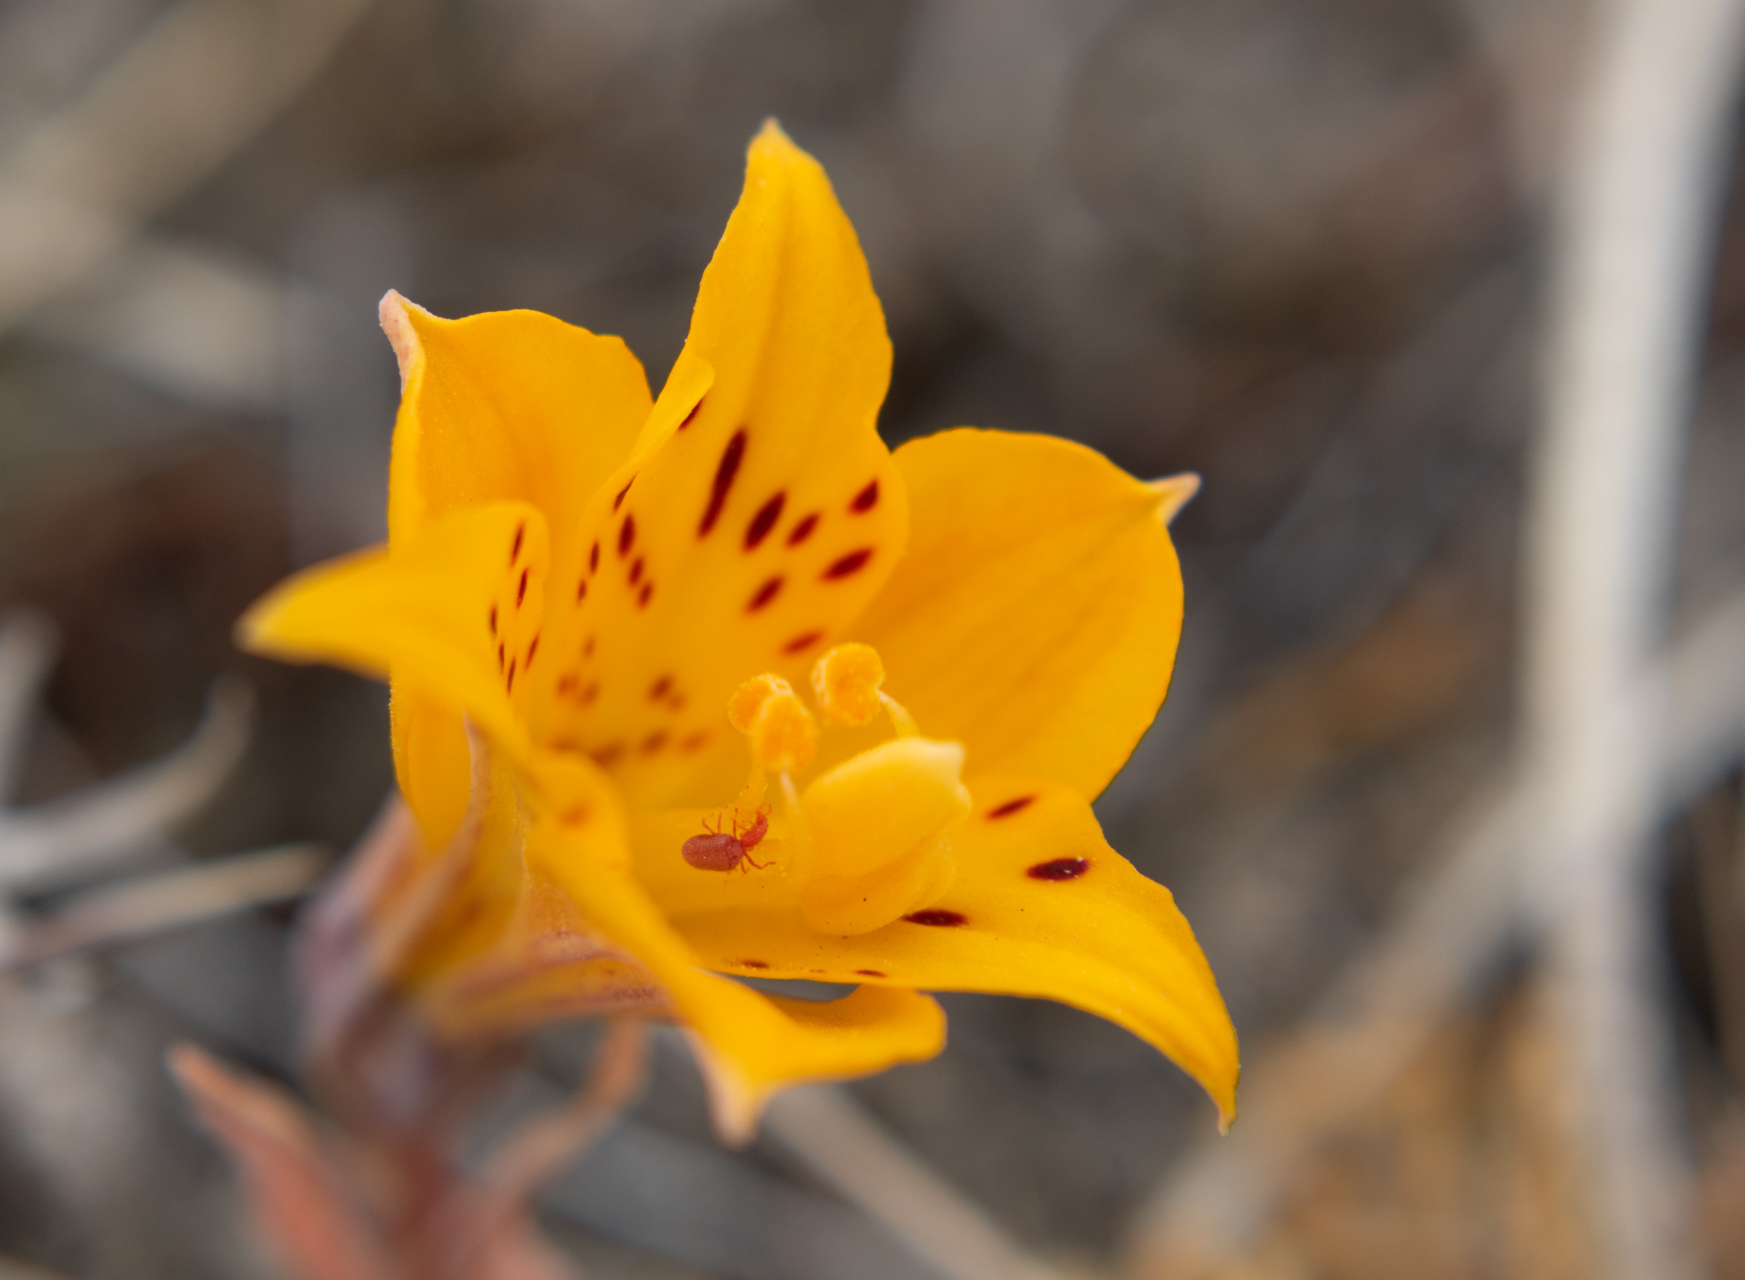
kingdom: Plantae
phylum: Tracheophyta
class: Liliopsida
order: Liliales
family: Alstroemeriaceae
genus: Alstroemeria
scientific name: Alstroemeria patagonica
